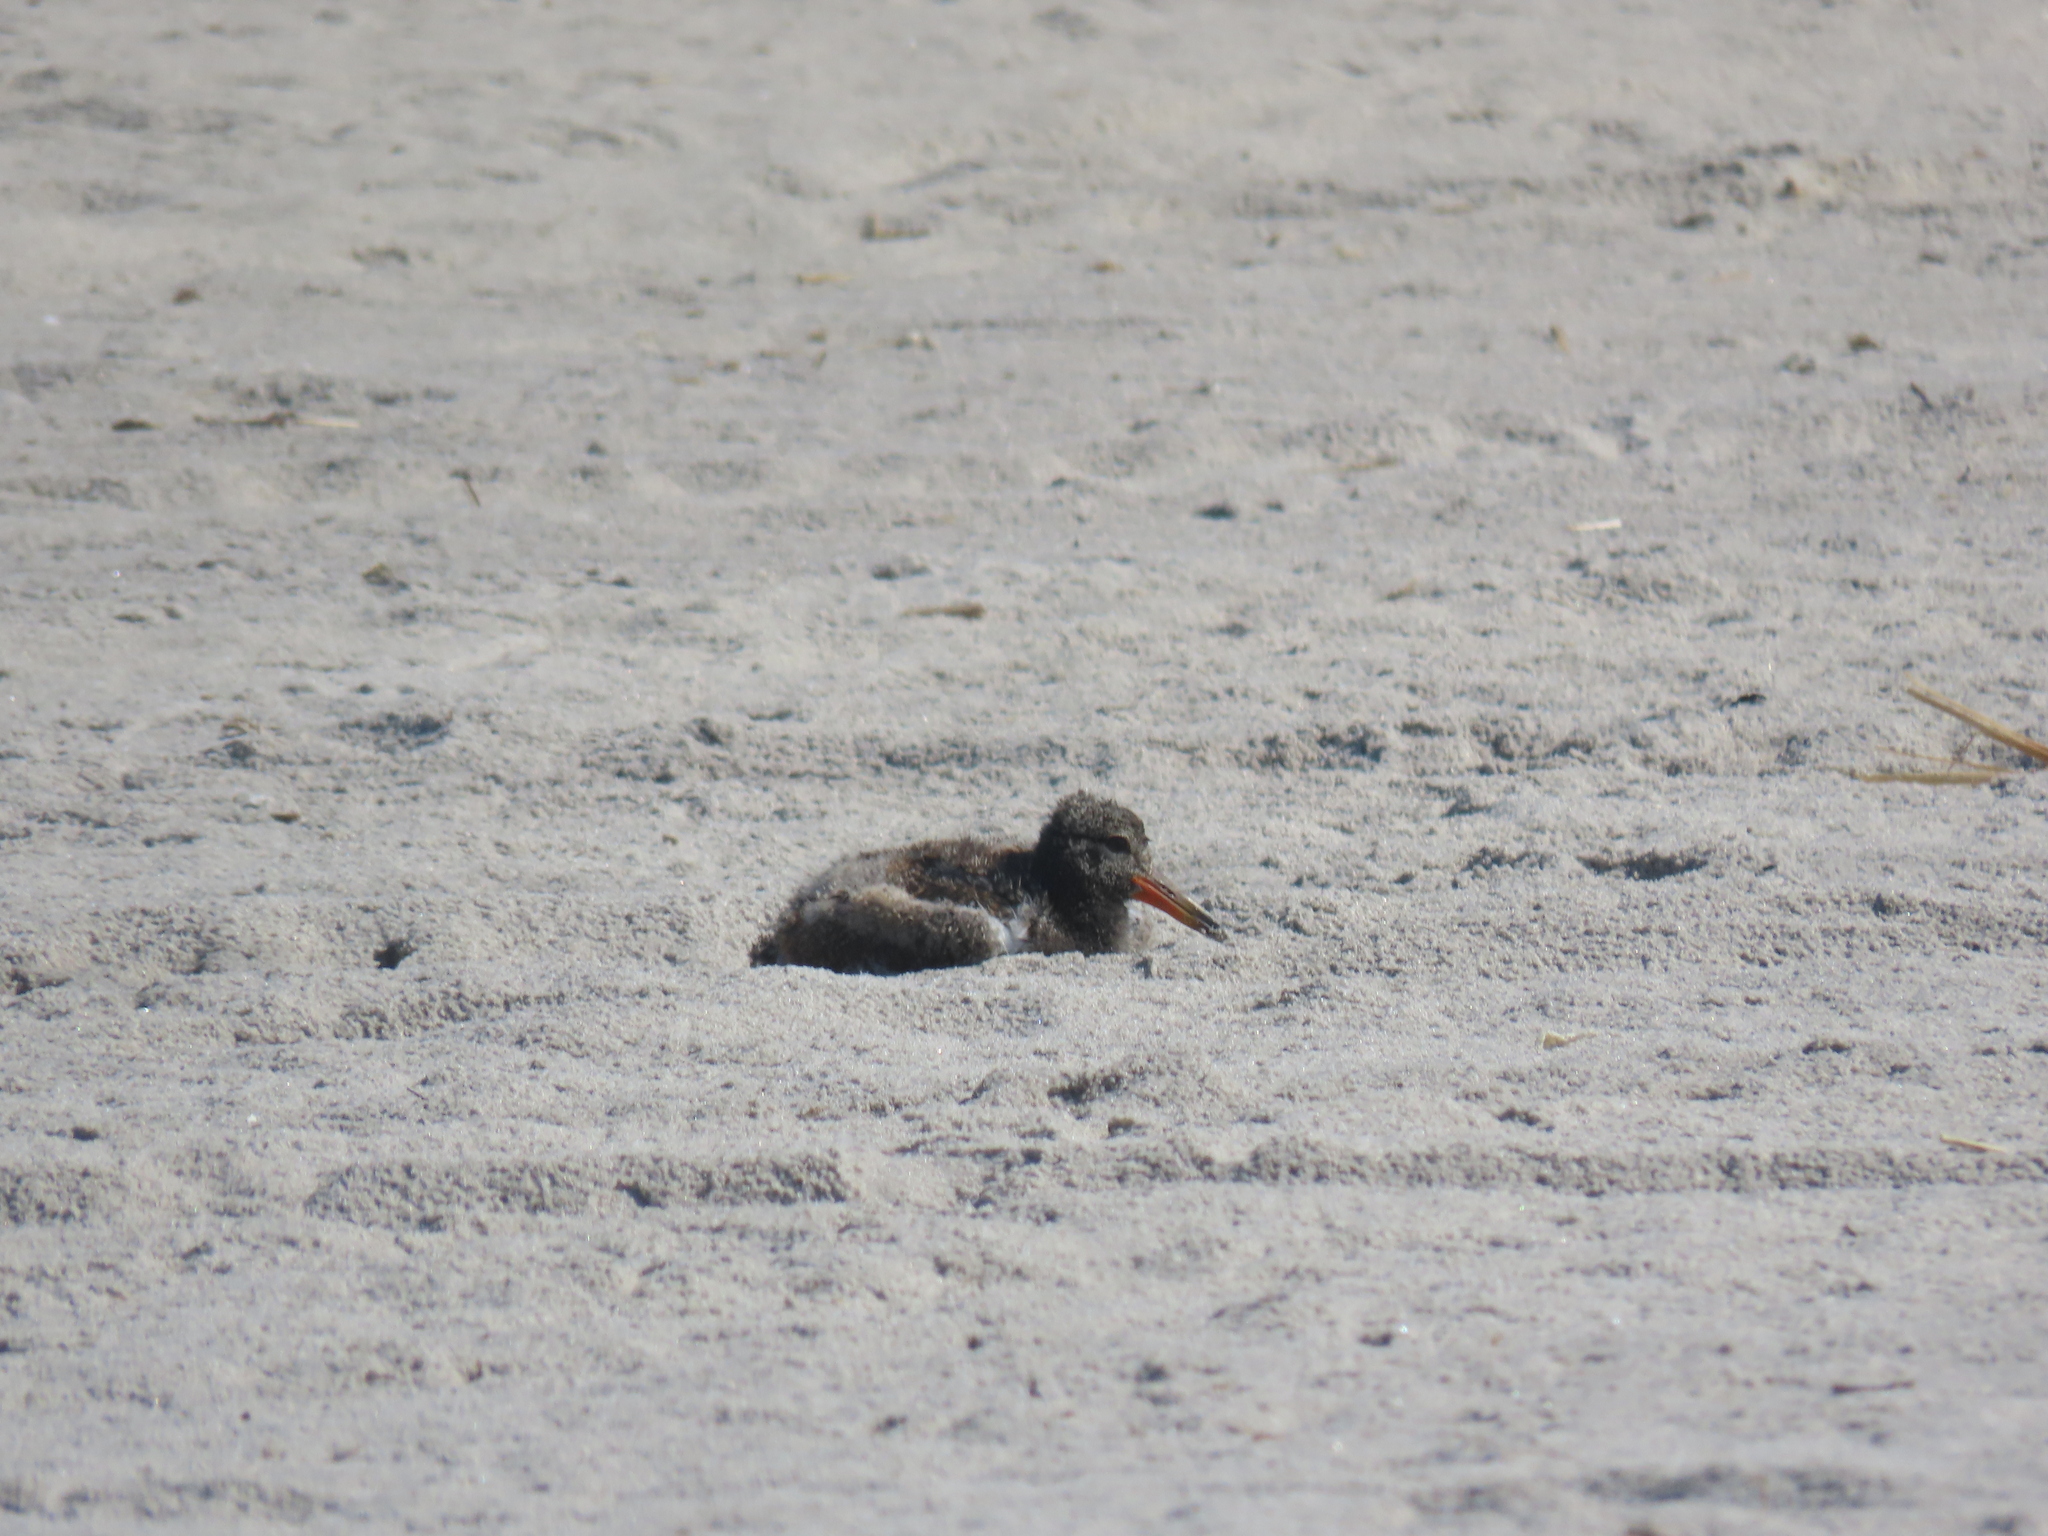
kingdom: Animalia
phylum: Chordata
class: Aves
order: Charadriiformes
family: Haematopodidae
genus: Haematopus
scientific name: Haematopus palliatus
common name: American oystercatcher
